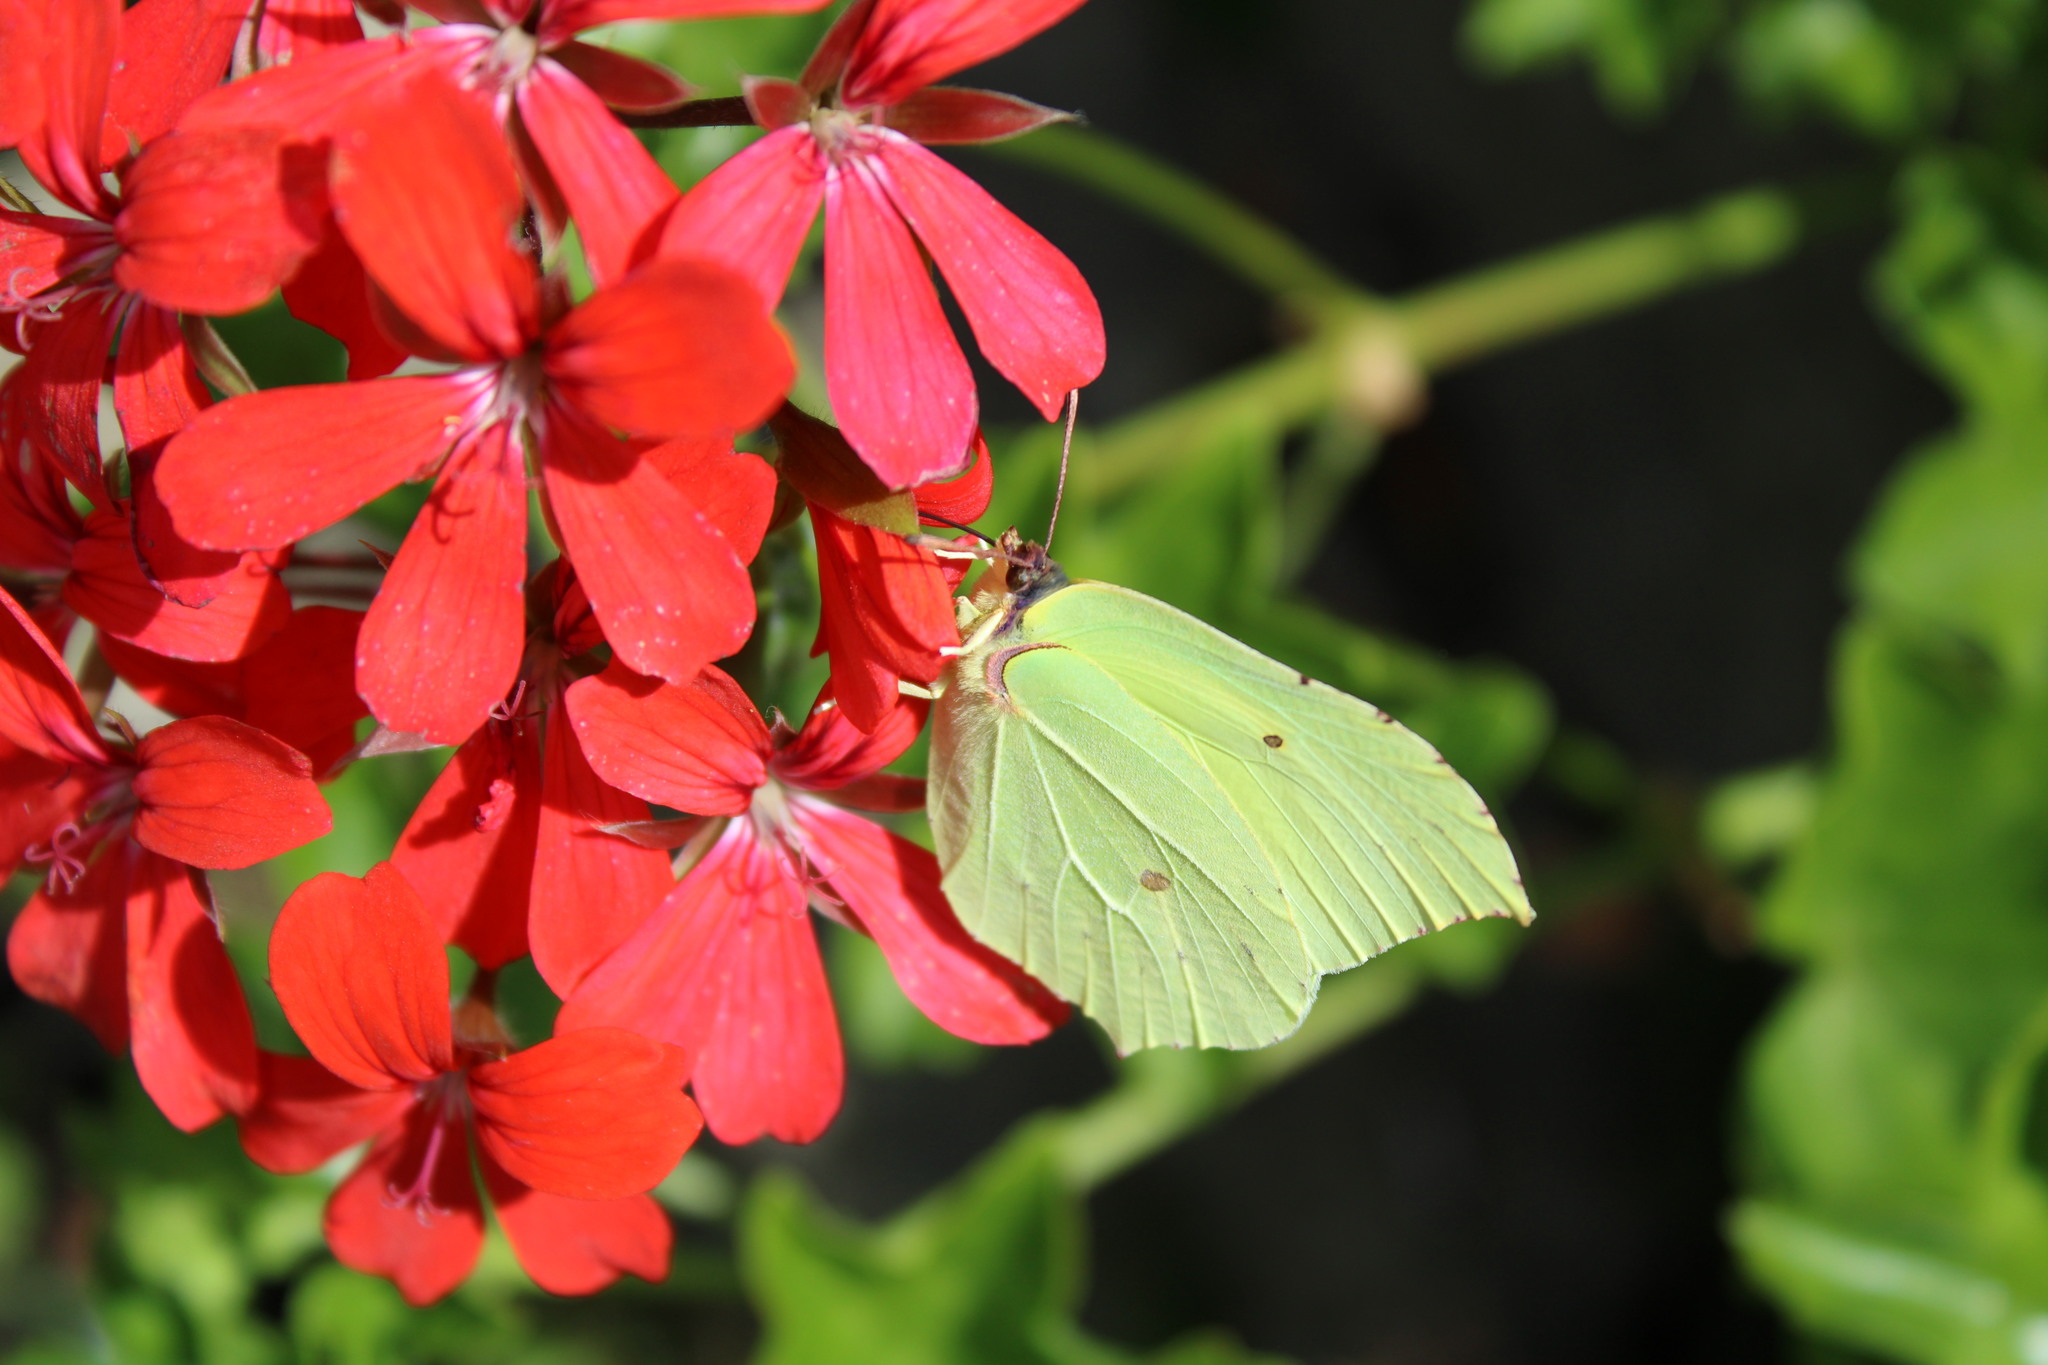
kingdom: Animalia
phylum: Arthropoda
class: Insecta
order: Lepidoptera
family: Pieridae
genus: Gonepteryx
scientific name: Gonepteryx rhamni
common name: Brimstone
